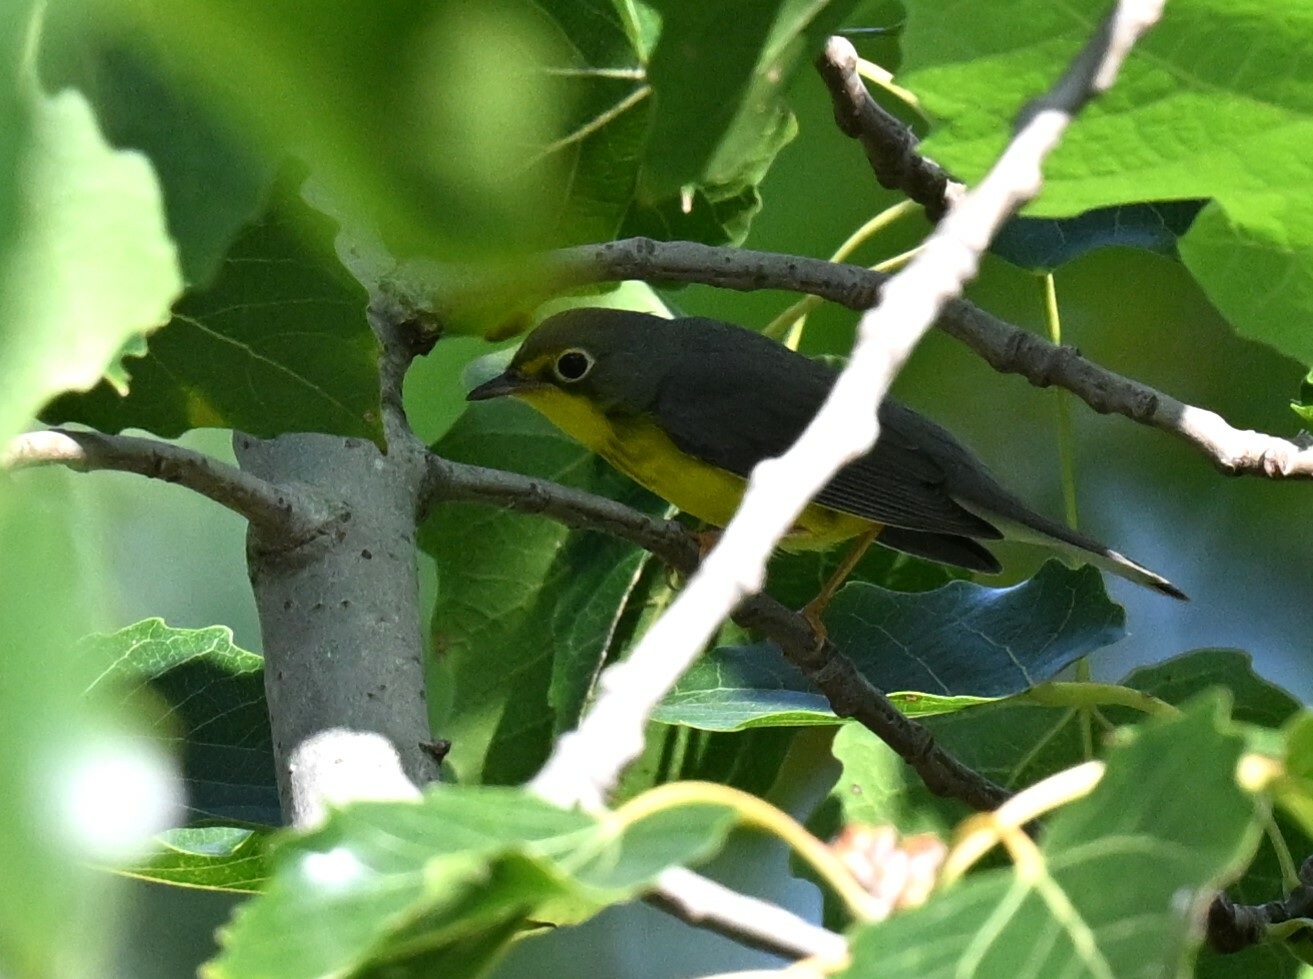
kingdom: Animalia
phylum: Chordata
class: Aves
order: Passeriformes
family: Parulidae
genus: Cardellina
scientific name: Cardellina canadensis
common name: Canada warbler
